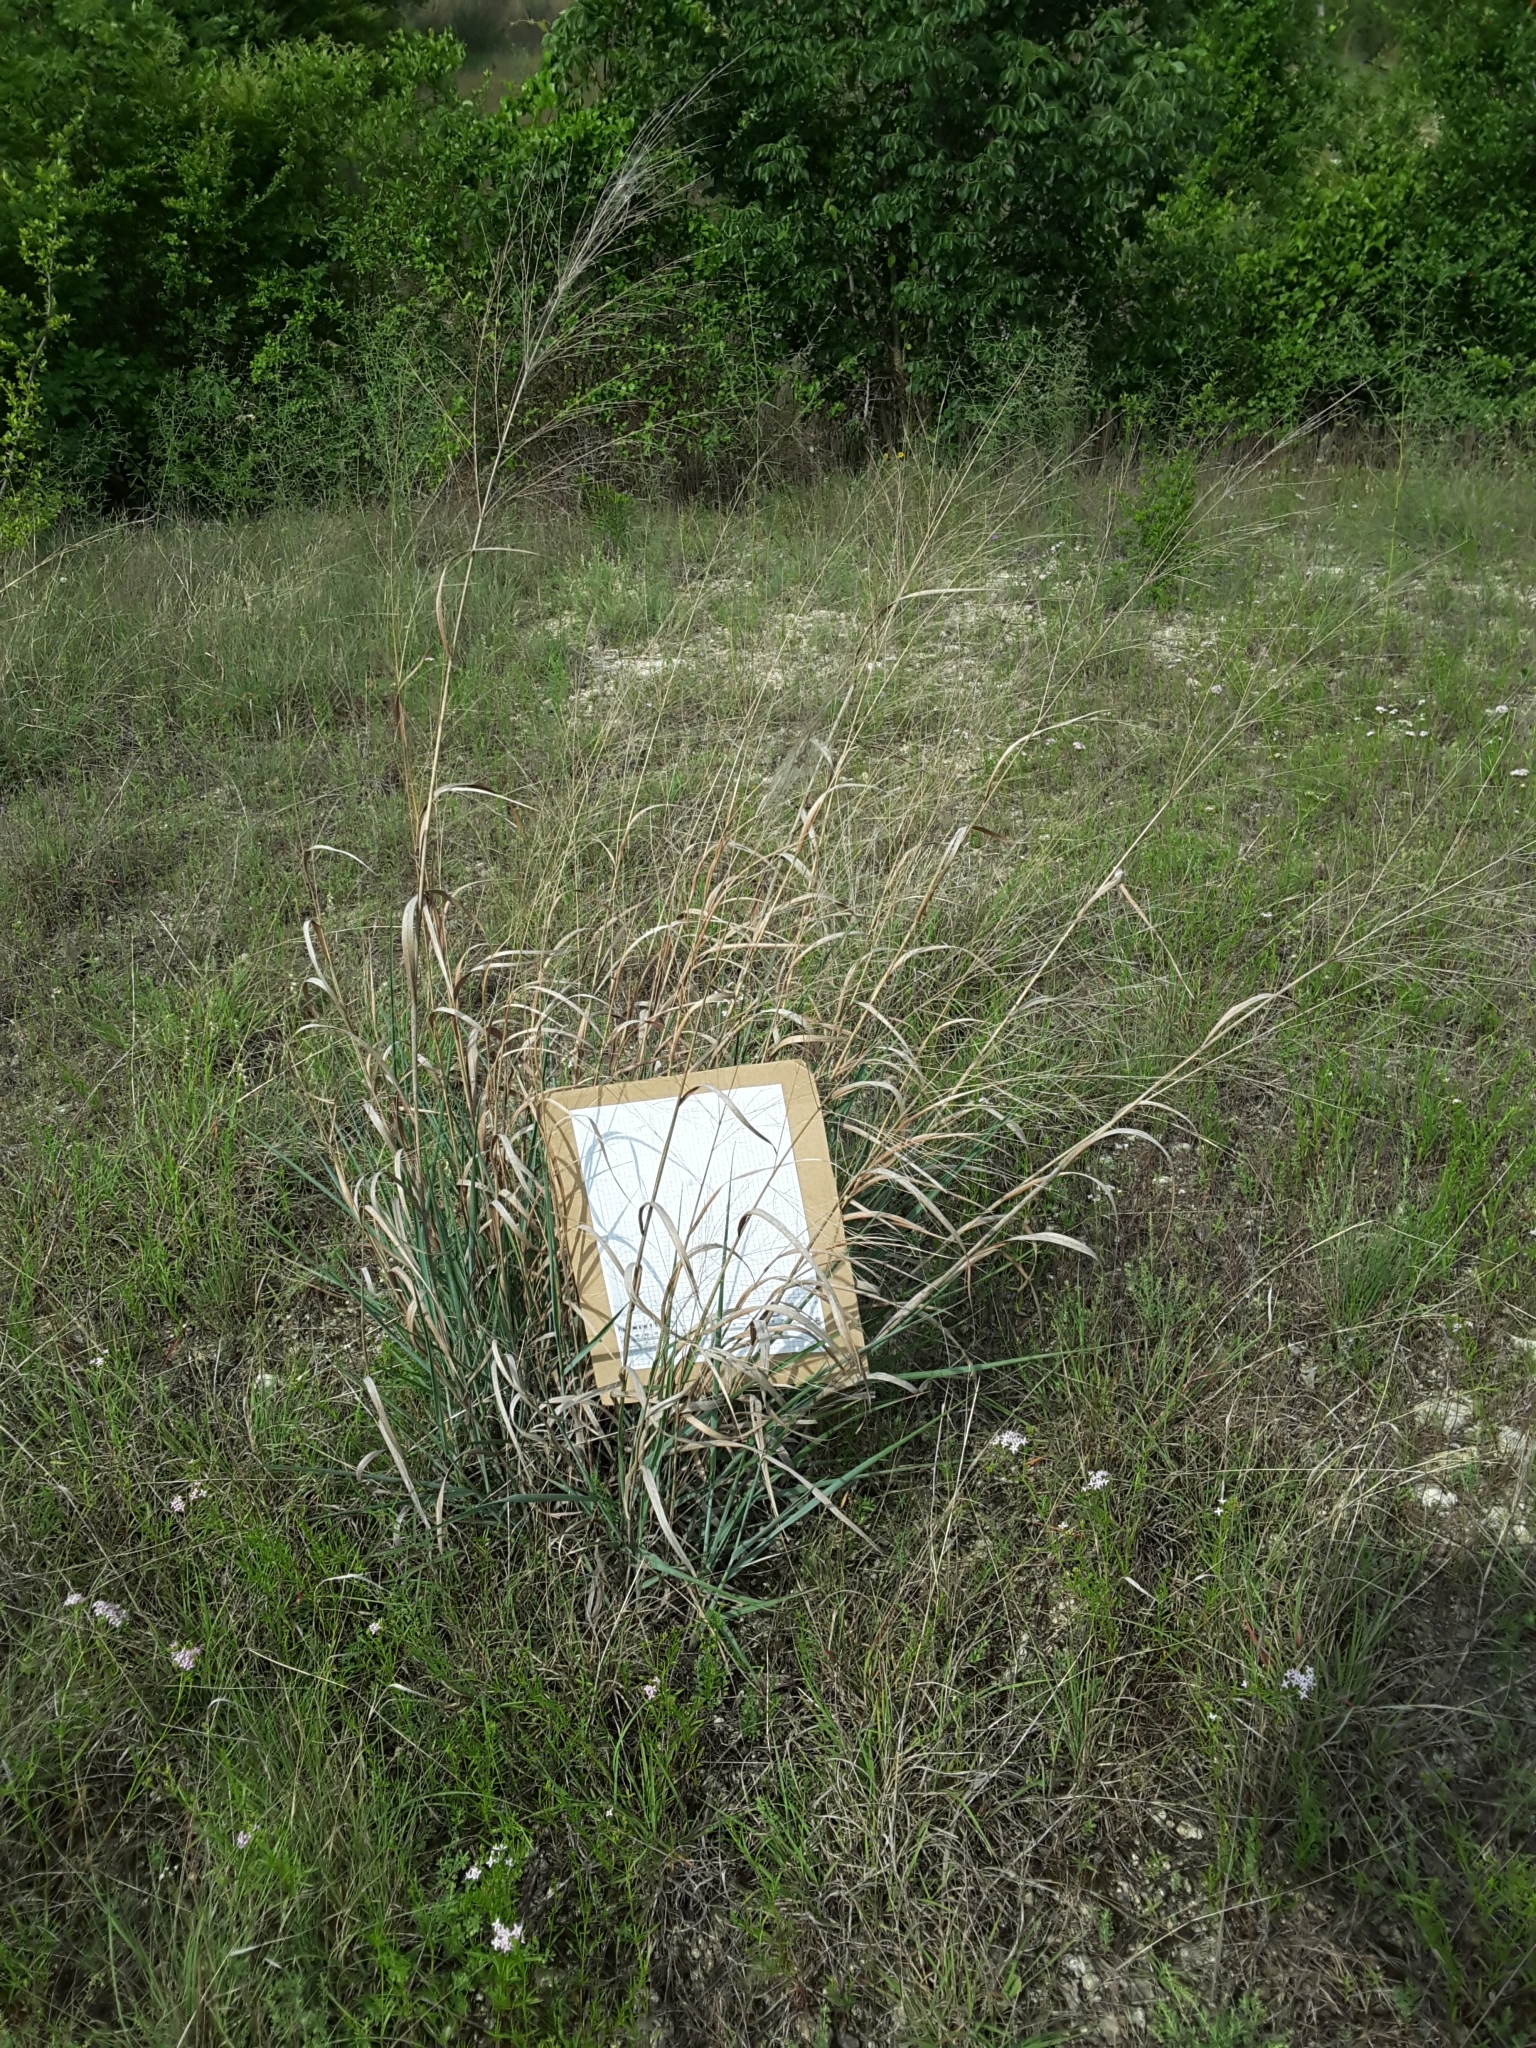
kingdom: Plantae
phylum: Tracheophyta
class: Liliopsida
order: Poales
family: Poaceae
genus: Panicum
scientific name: Panicum virgatum
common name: Switchgrass
